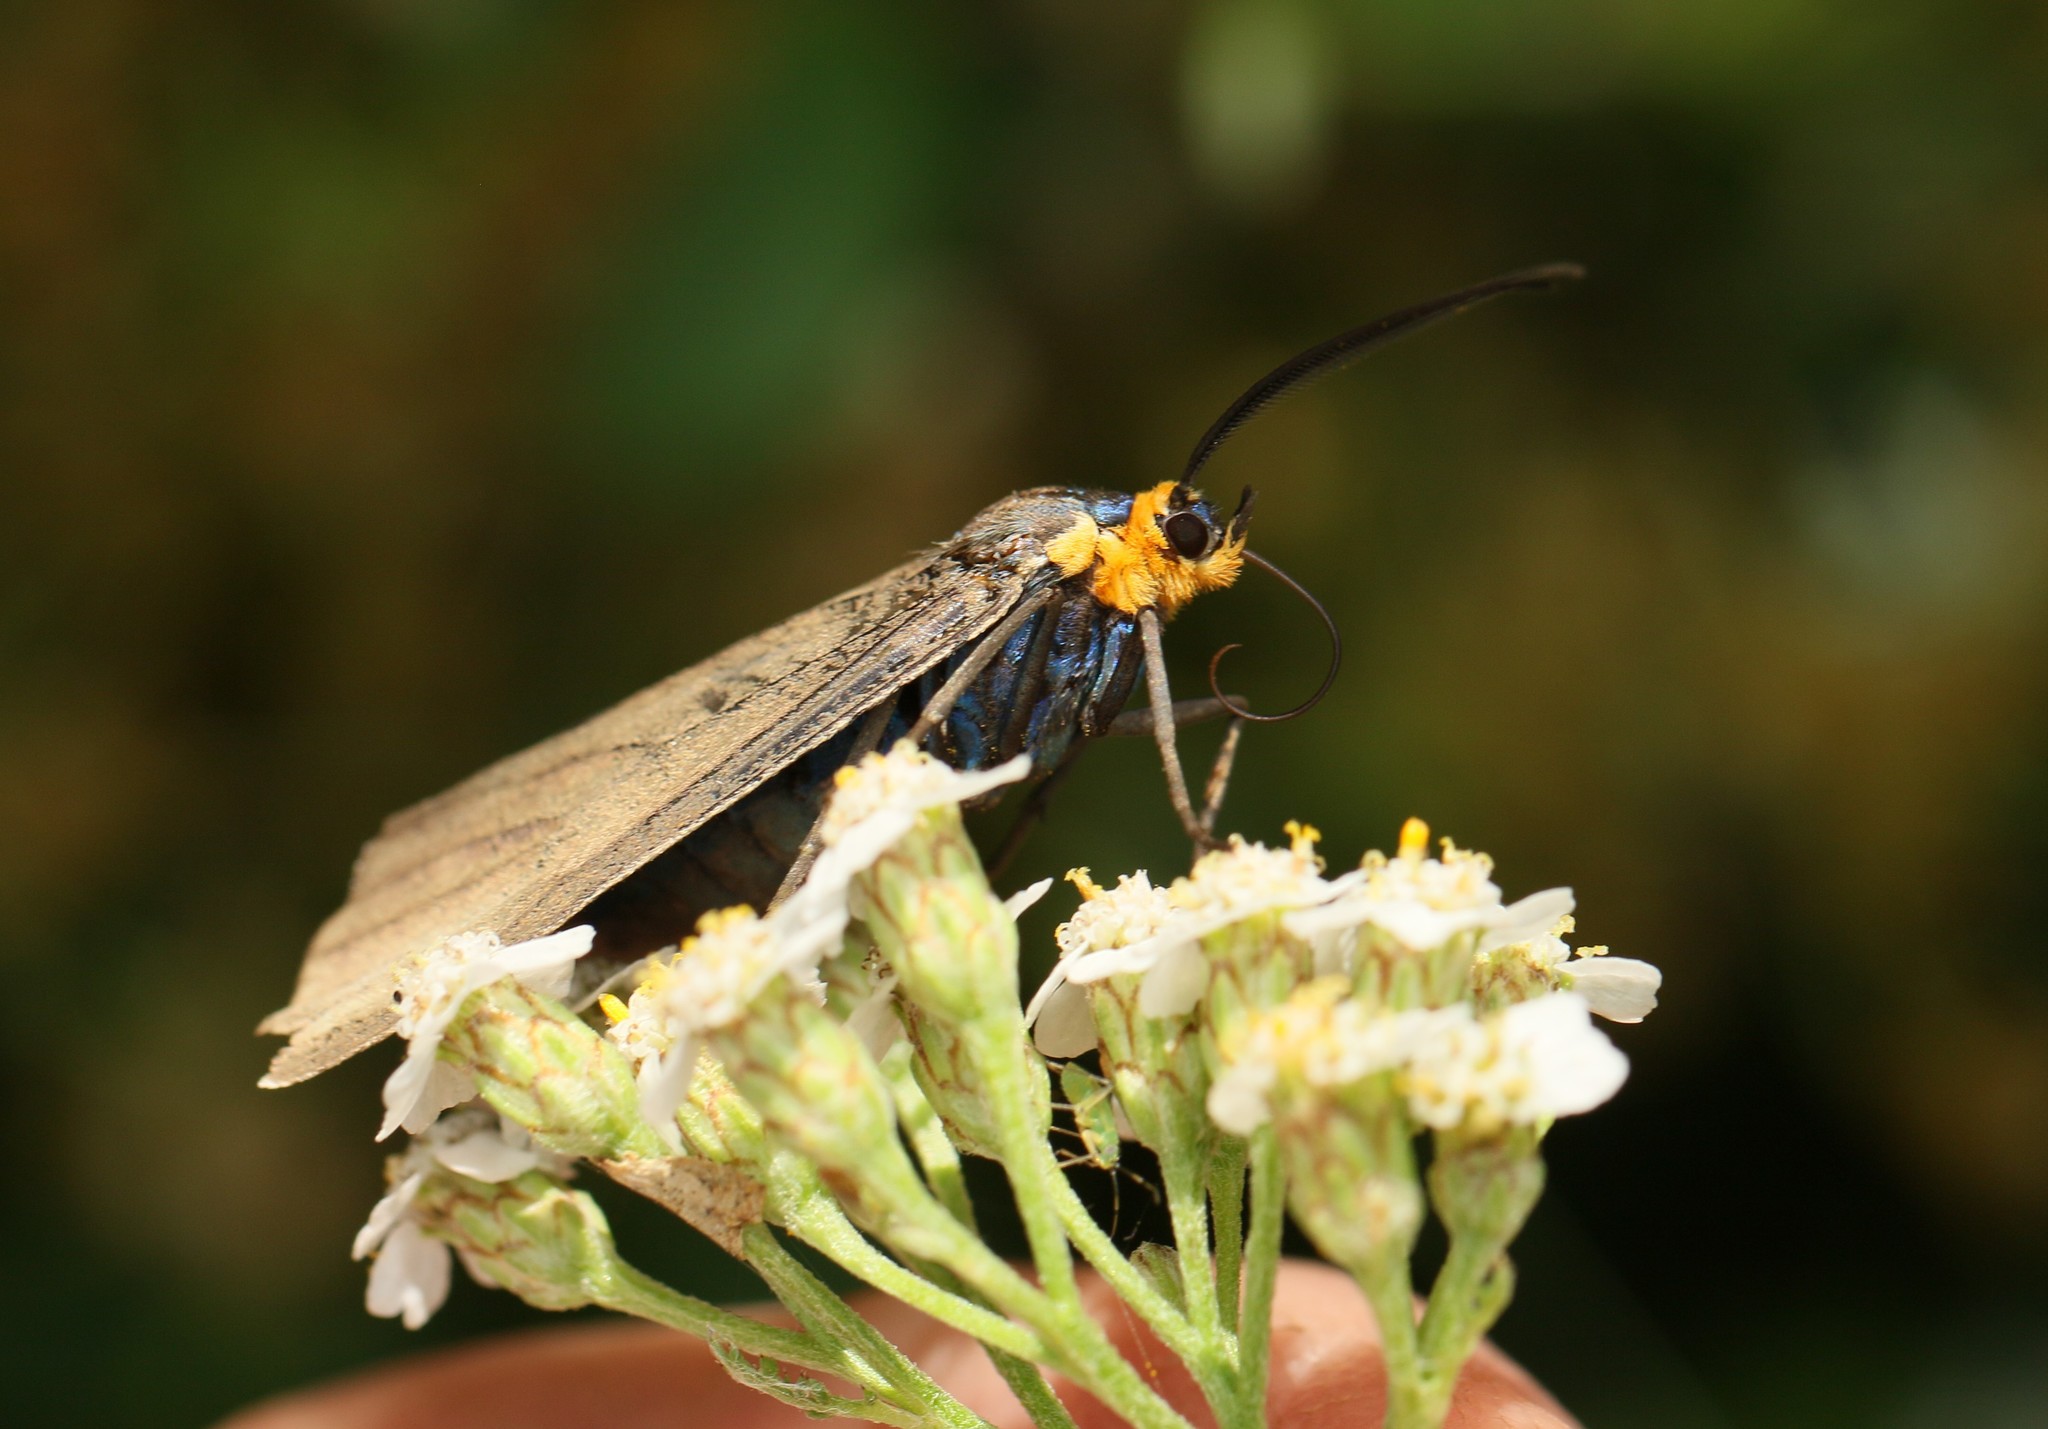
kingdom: Animalia
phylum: Arthropoda
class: Insecta
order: Lepidoptera
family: Erebidae
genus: Ctenucha
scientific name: Ctenucha virginica
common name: Virginia ctenucha moth
